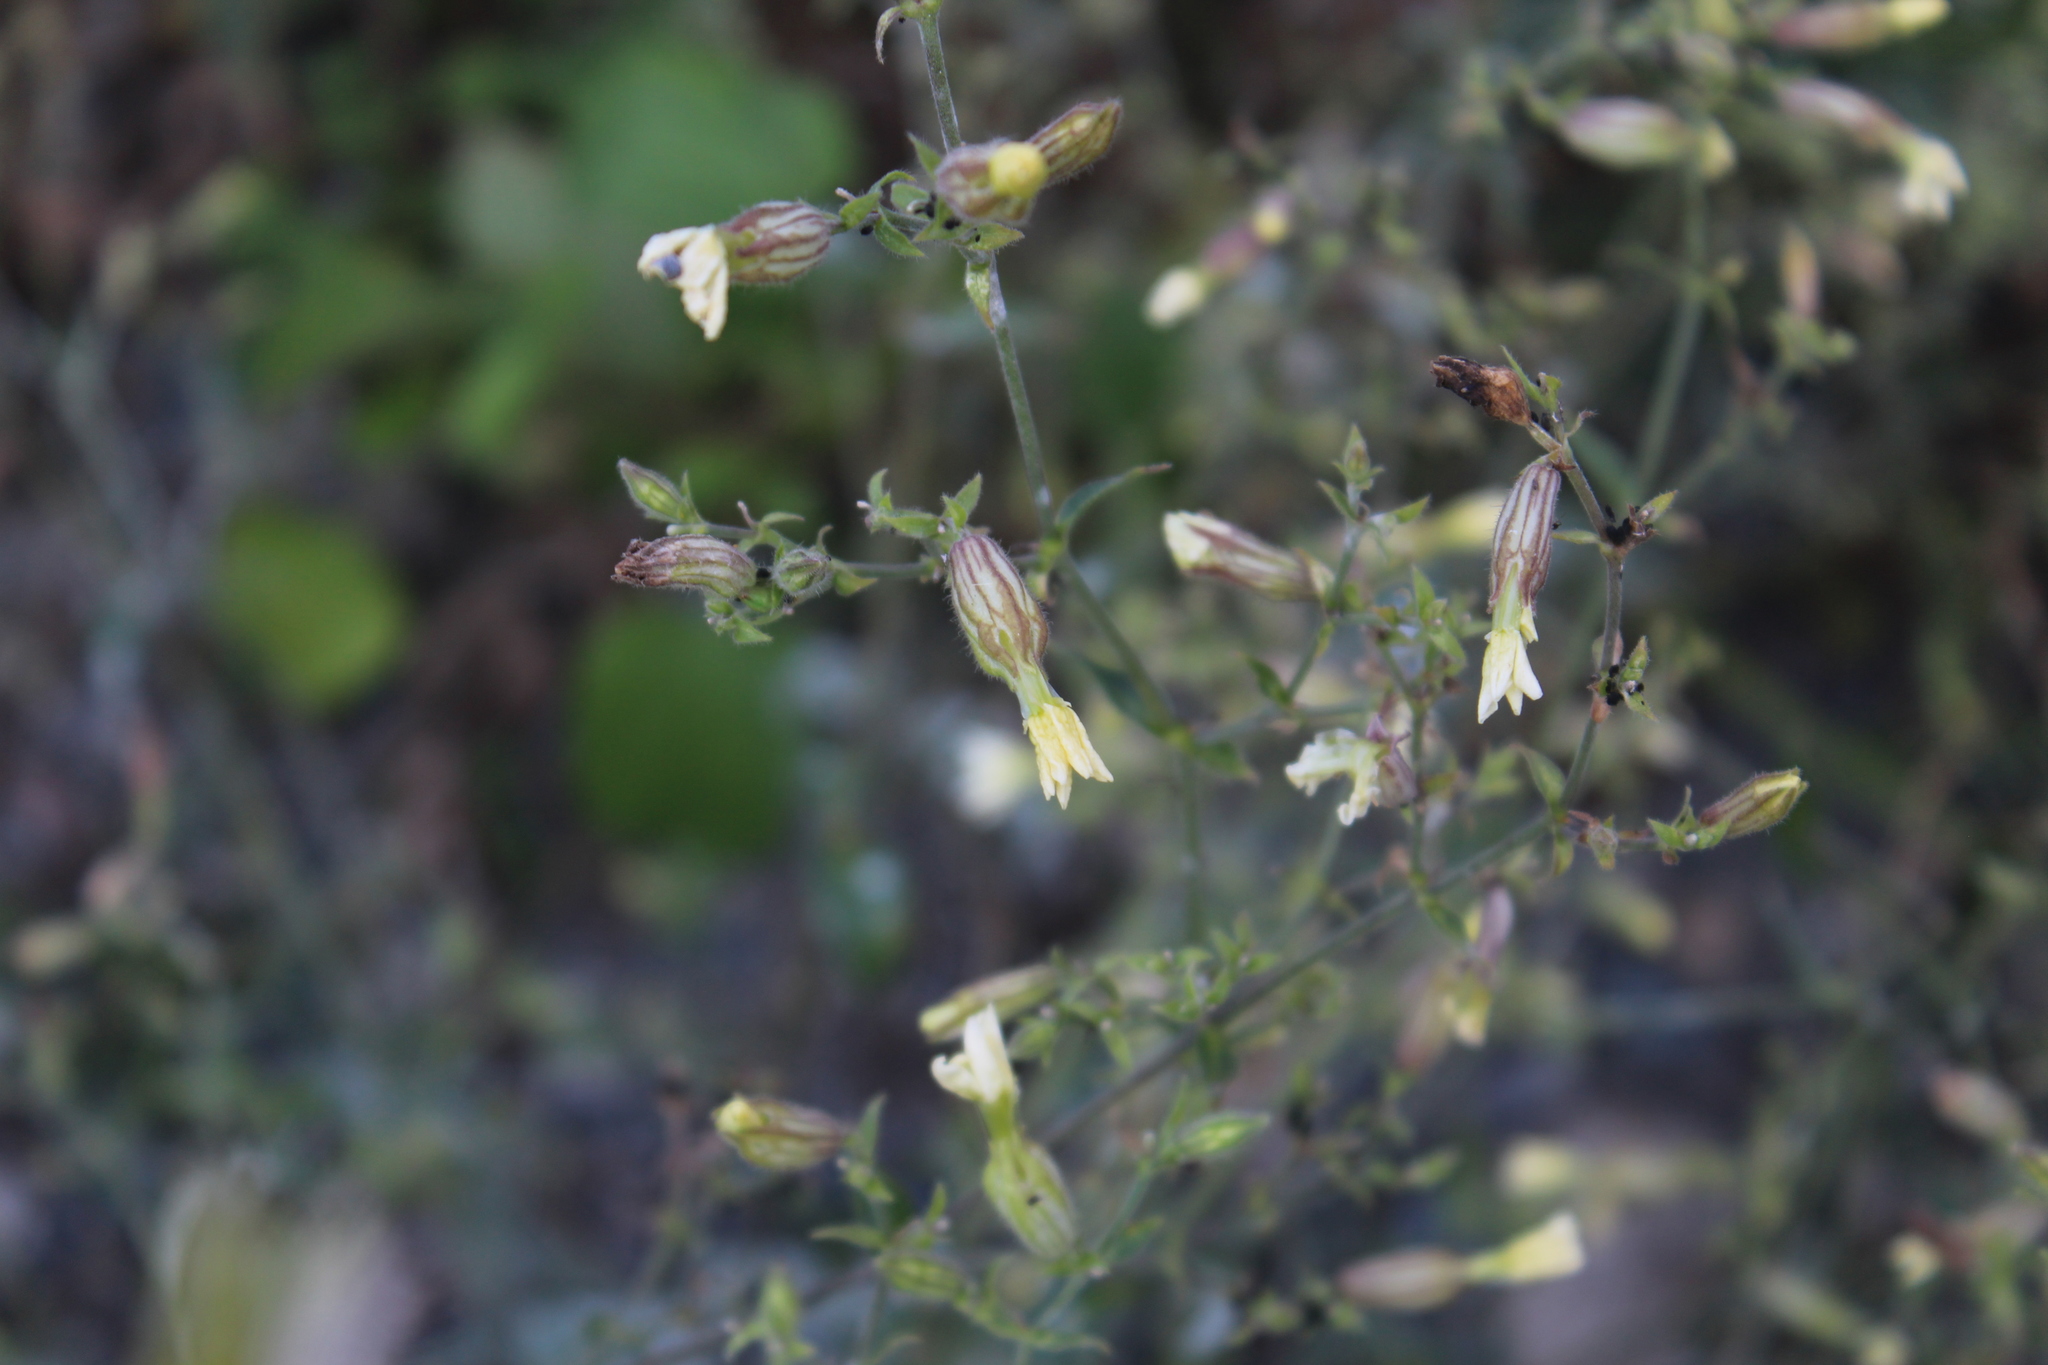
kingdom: Plantae
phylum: Tracheophyta
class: Magnoliopsida
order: Caryophyllales
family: Caryophyllaceae
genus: Silene
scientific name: Silene latifolia
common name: White campion
